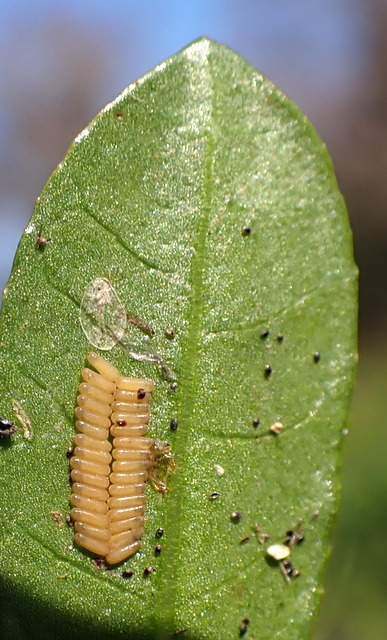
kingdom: Animalia
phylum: Arthropoda
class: Insecta
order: Coleoptera
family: Chrysomelidae
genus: Agasicles
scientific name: Agasicles hygrophila
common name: Alligatorweed flea beetle
